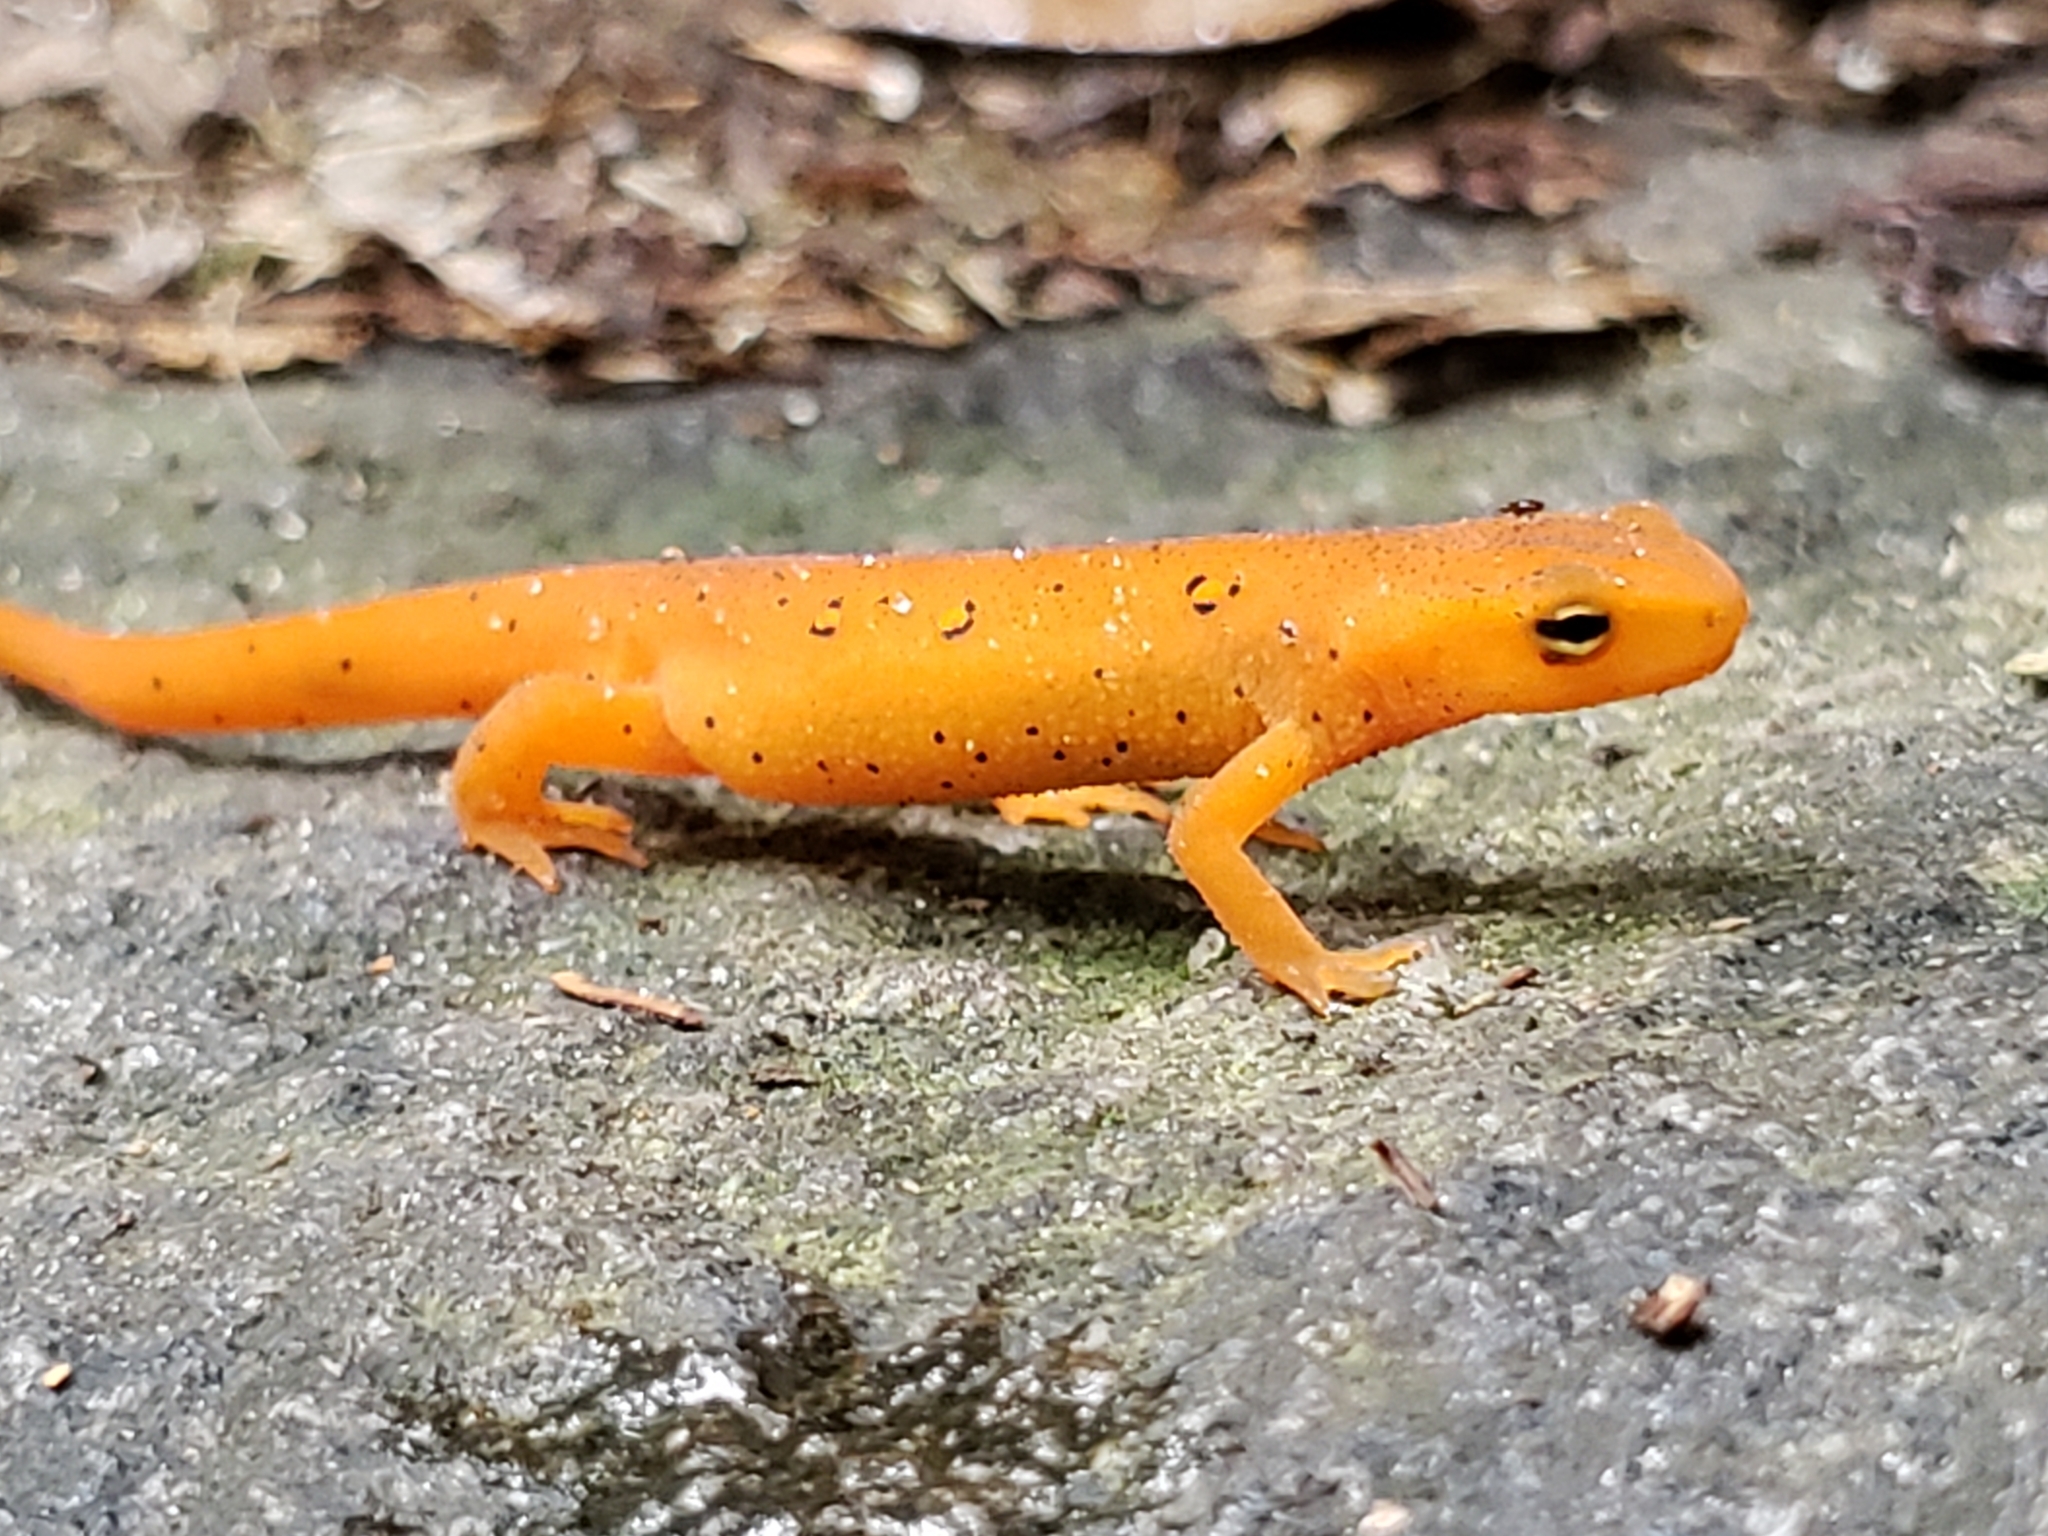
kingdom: Animalia
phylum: Chordata
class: Amphibia
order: Caudata
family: Salamandridae
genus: Notophthalmus
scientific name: Notophthalmus viridescens
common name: Eastern newt
